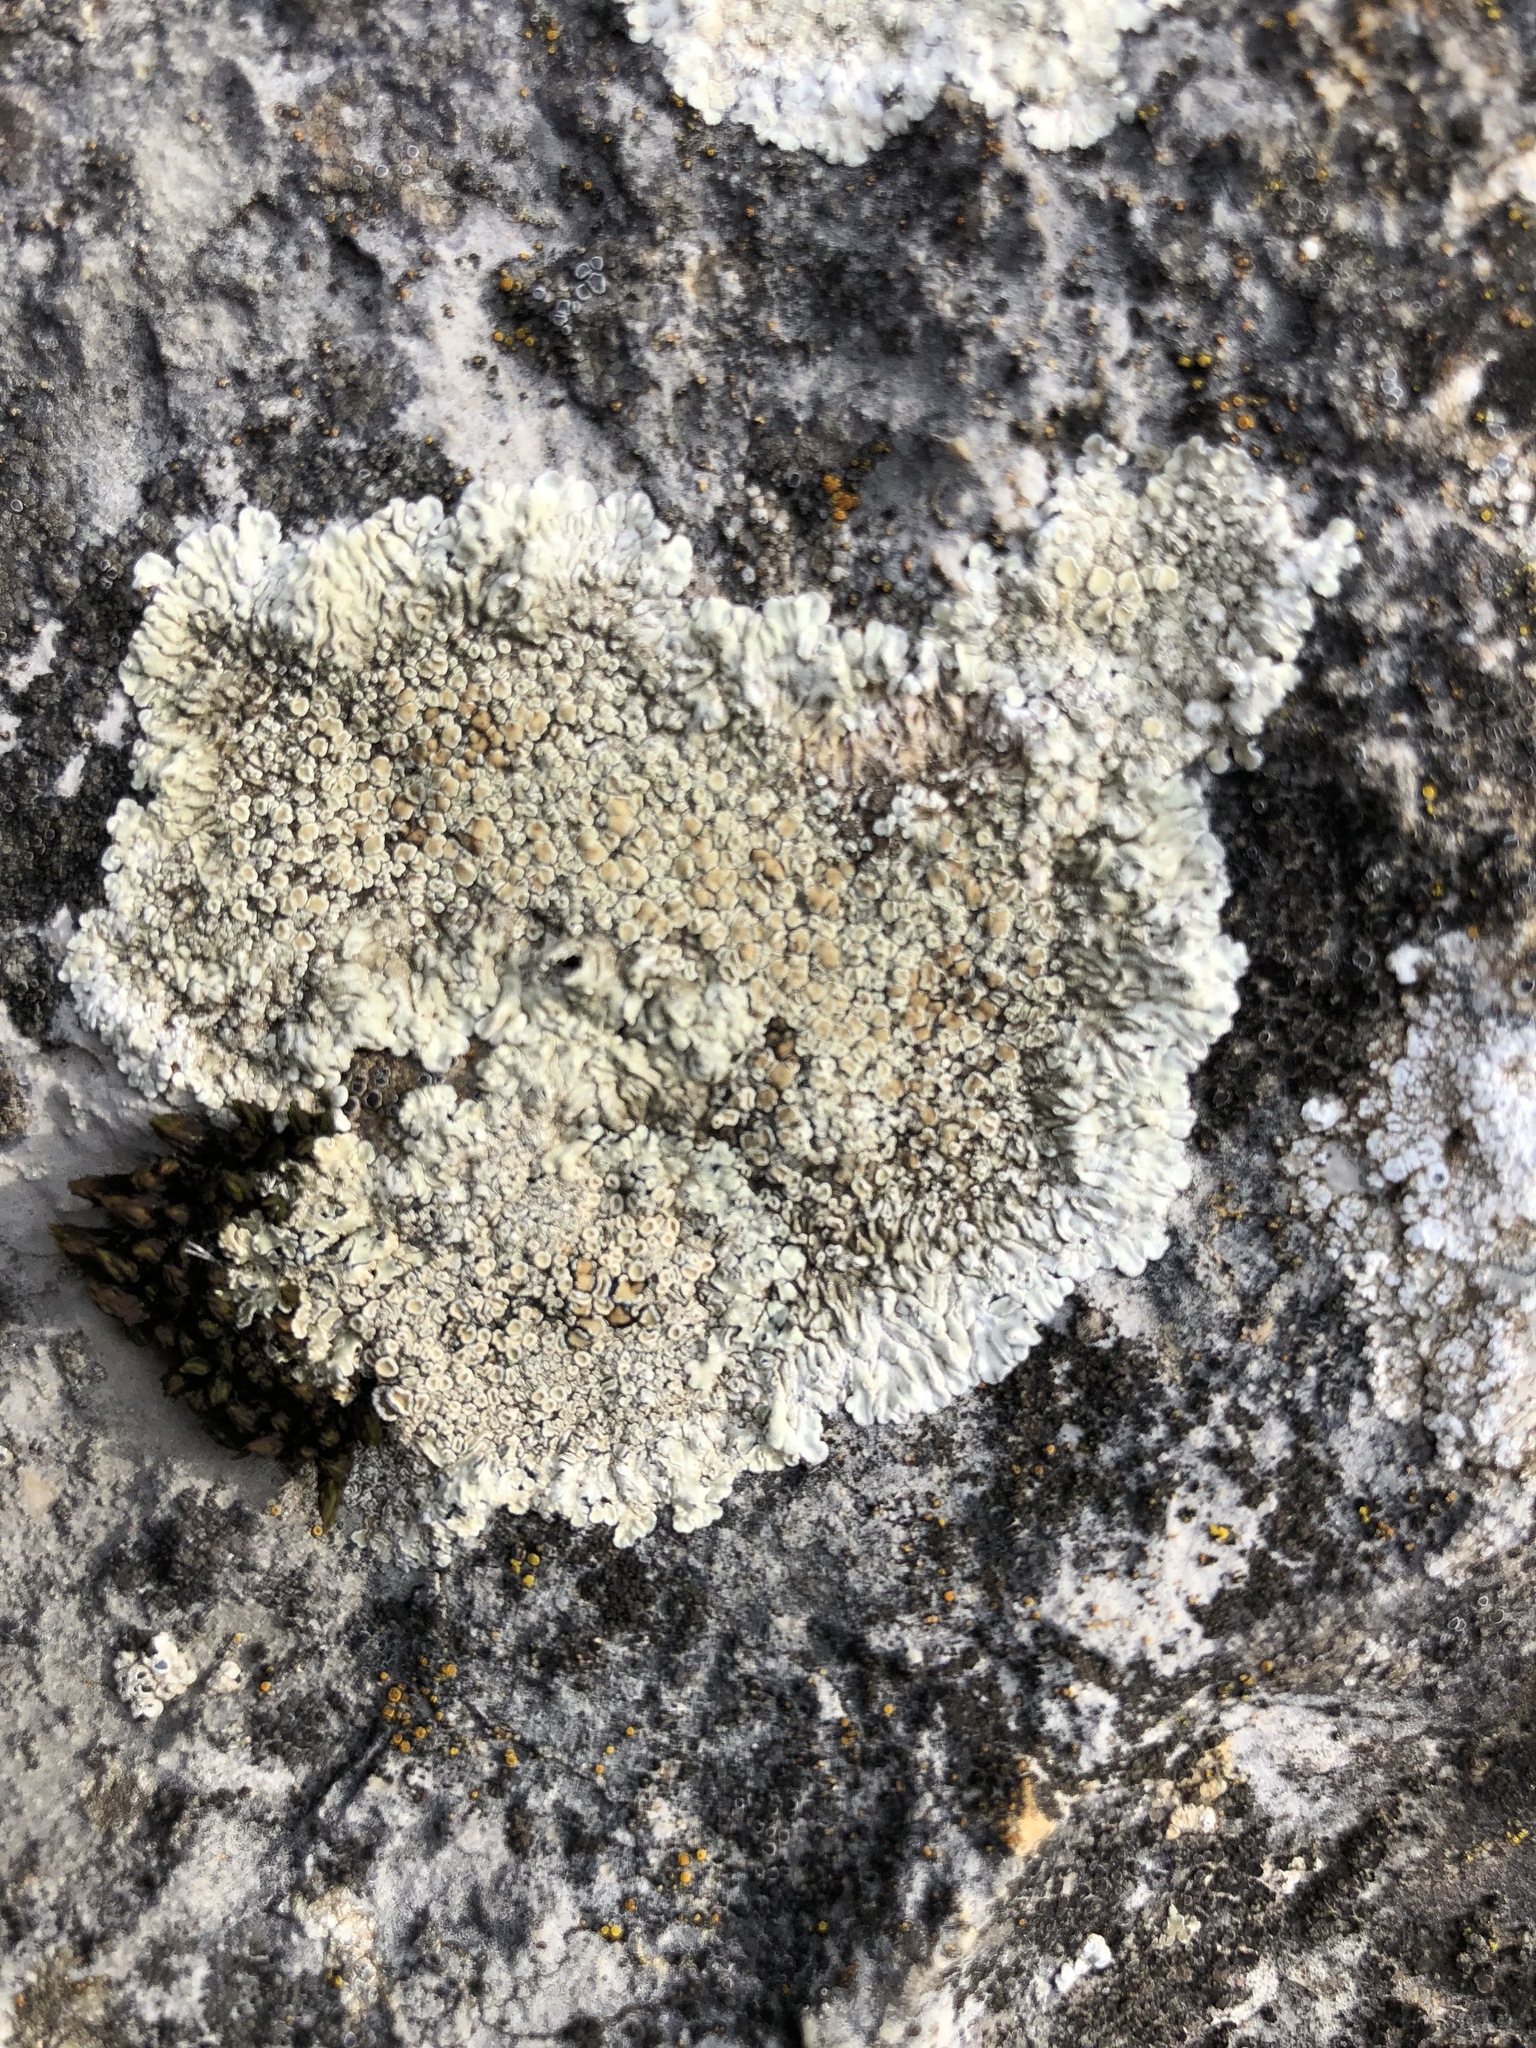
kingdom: Fungi
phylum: Ascomycota
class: Lecanoromycetes
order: Lecanorales
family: Lecanoraceae
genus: Protoparmeliopsis
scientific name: Protoparmeliopsis muralis
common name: Stonewall rim lichen
